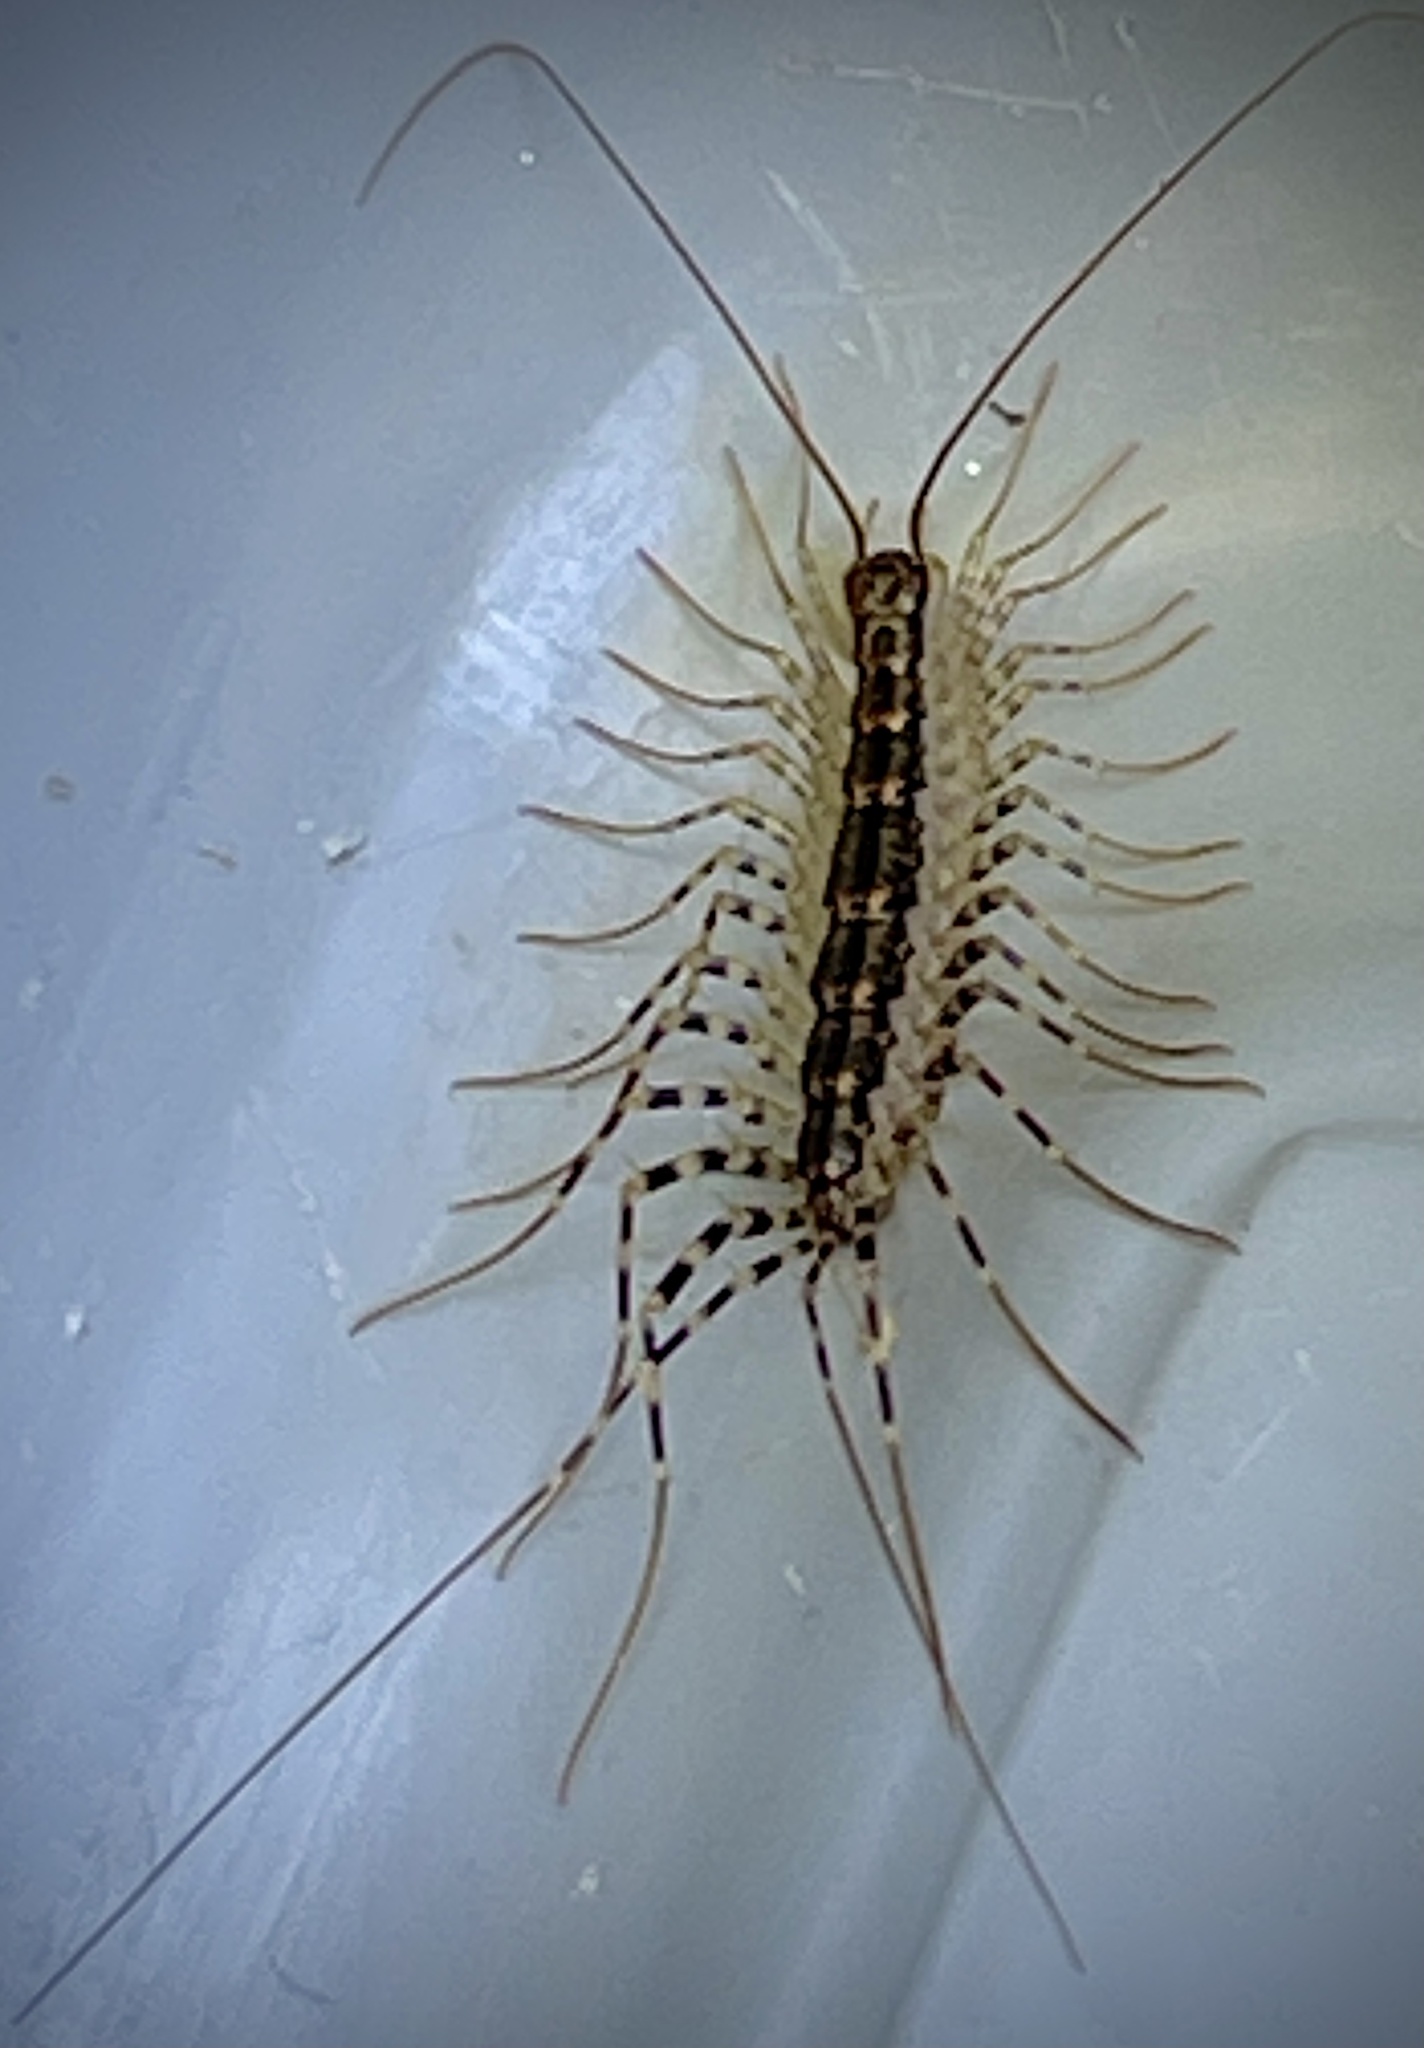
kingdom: Animalia
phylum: Arthropoda
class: Chilopoda
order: Scutigeromorpha
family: Scutigeridae
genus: Scutigera
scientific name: Scutigera coleoptrata
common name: House centipede
